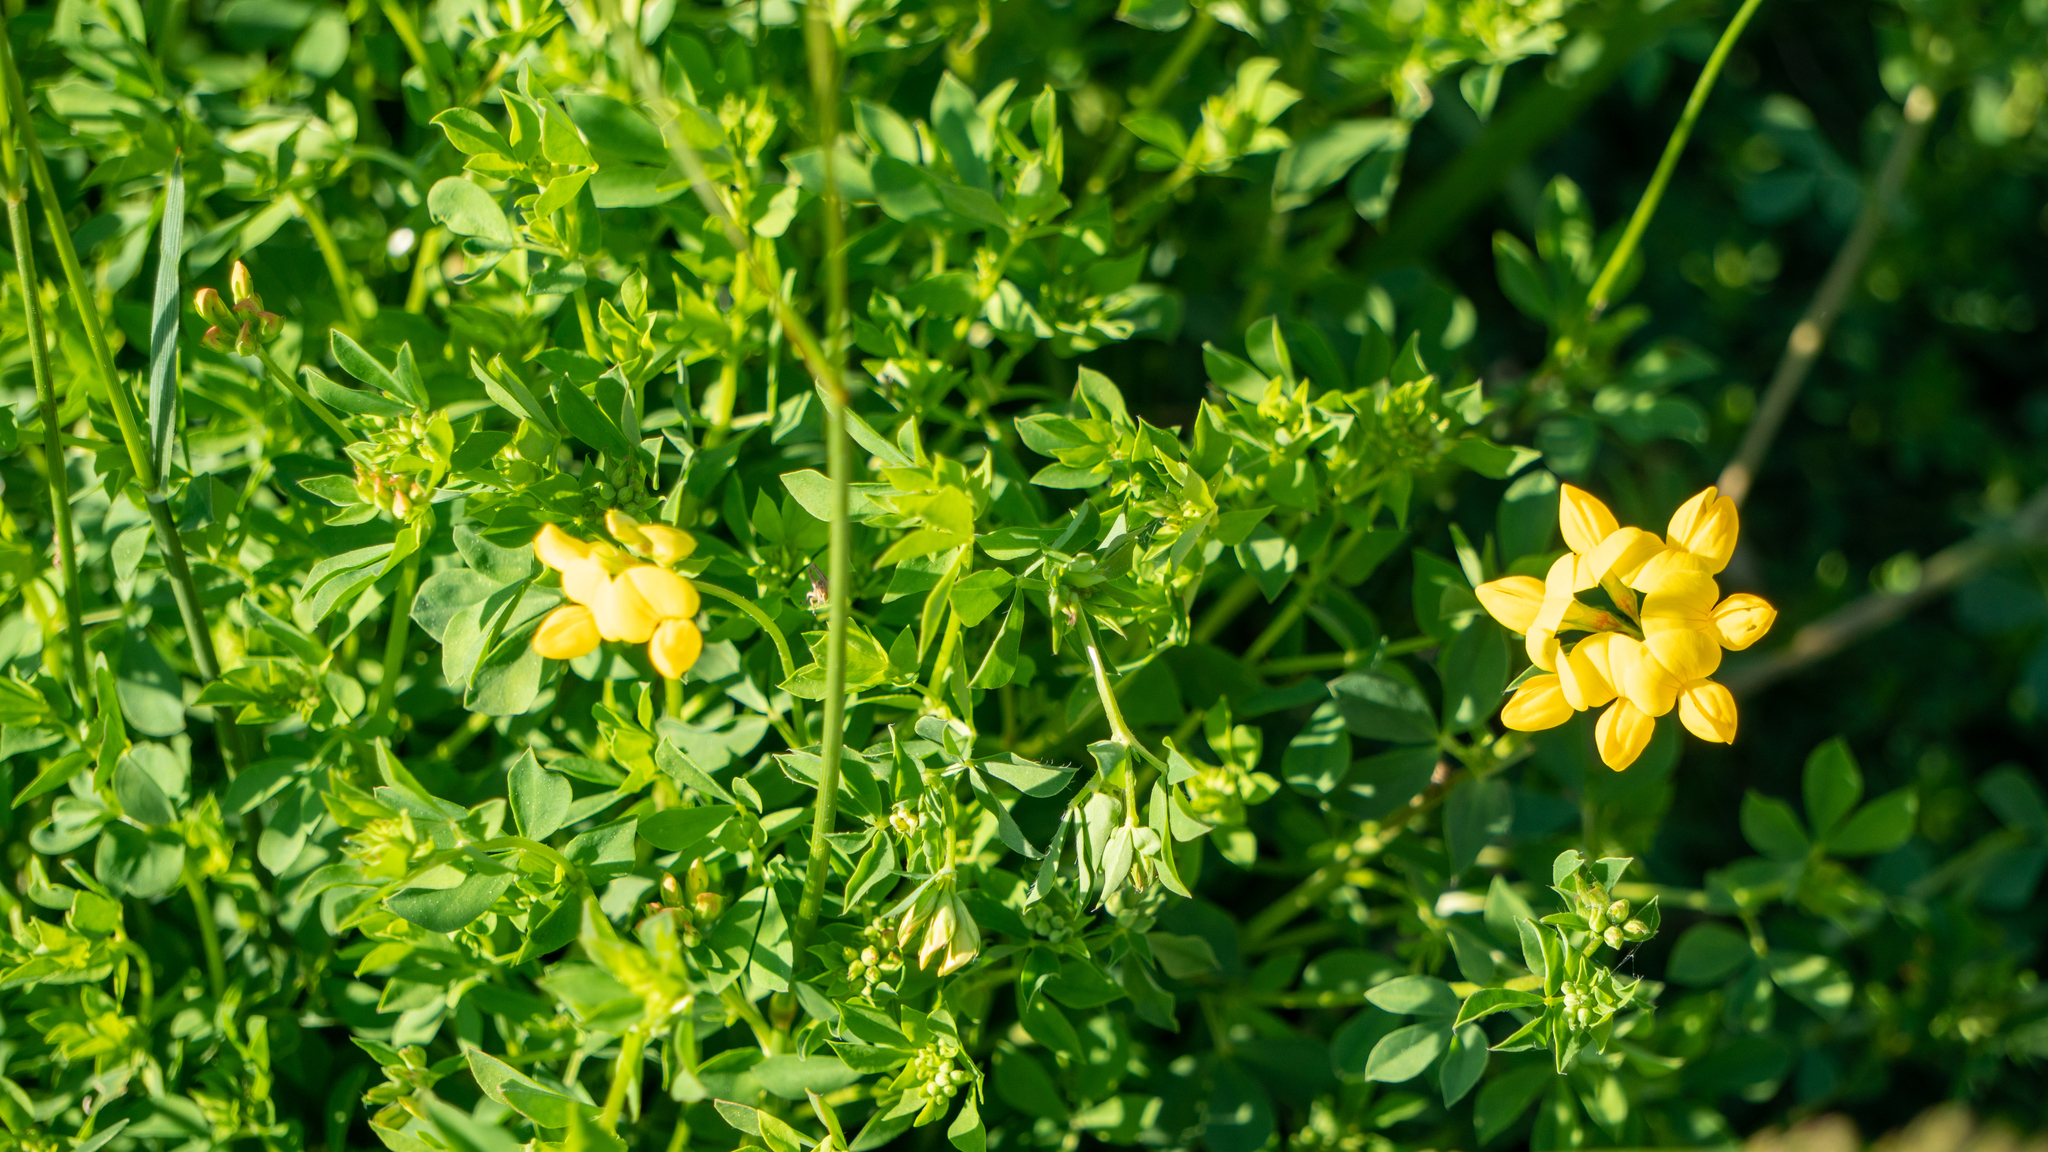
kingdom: Plantae
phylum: Tracheophyta
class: Magnoliopsida
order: Fabales
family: Fabaceae
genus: Lotus
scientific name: Lotus corniculatus
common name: Common bird's-foot-trefoil
